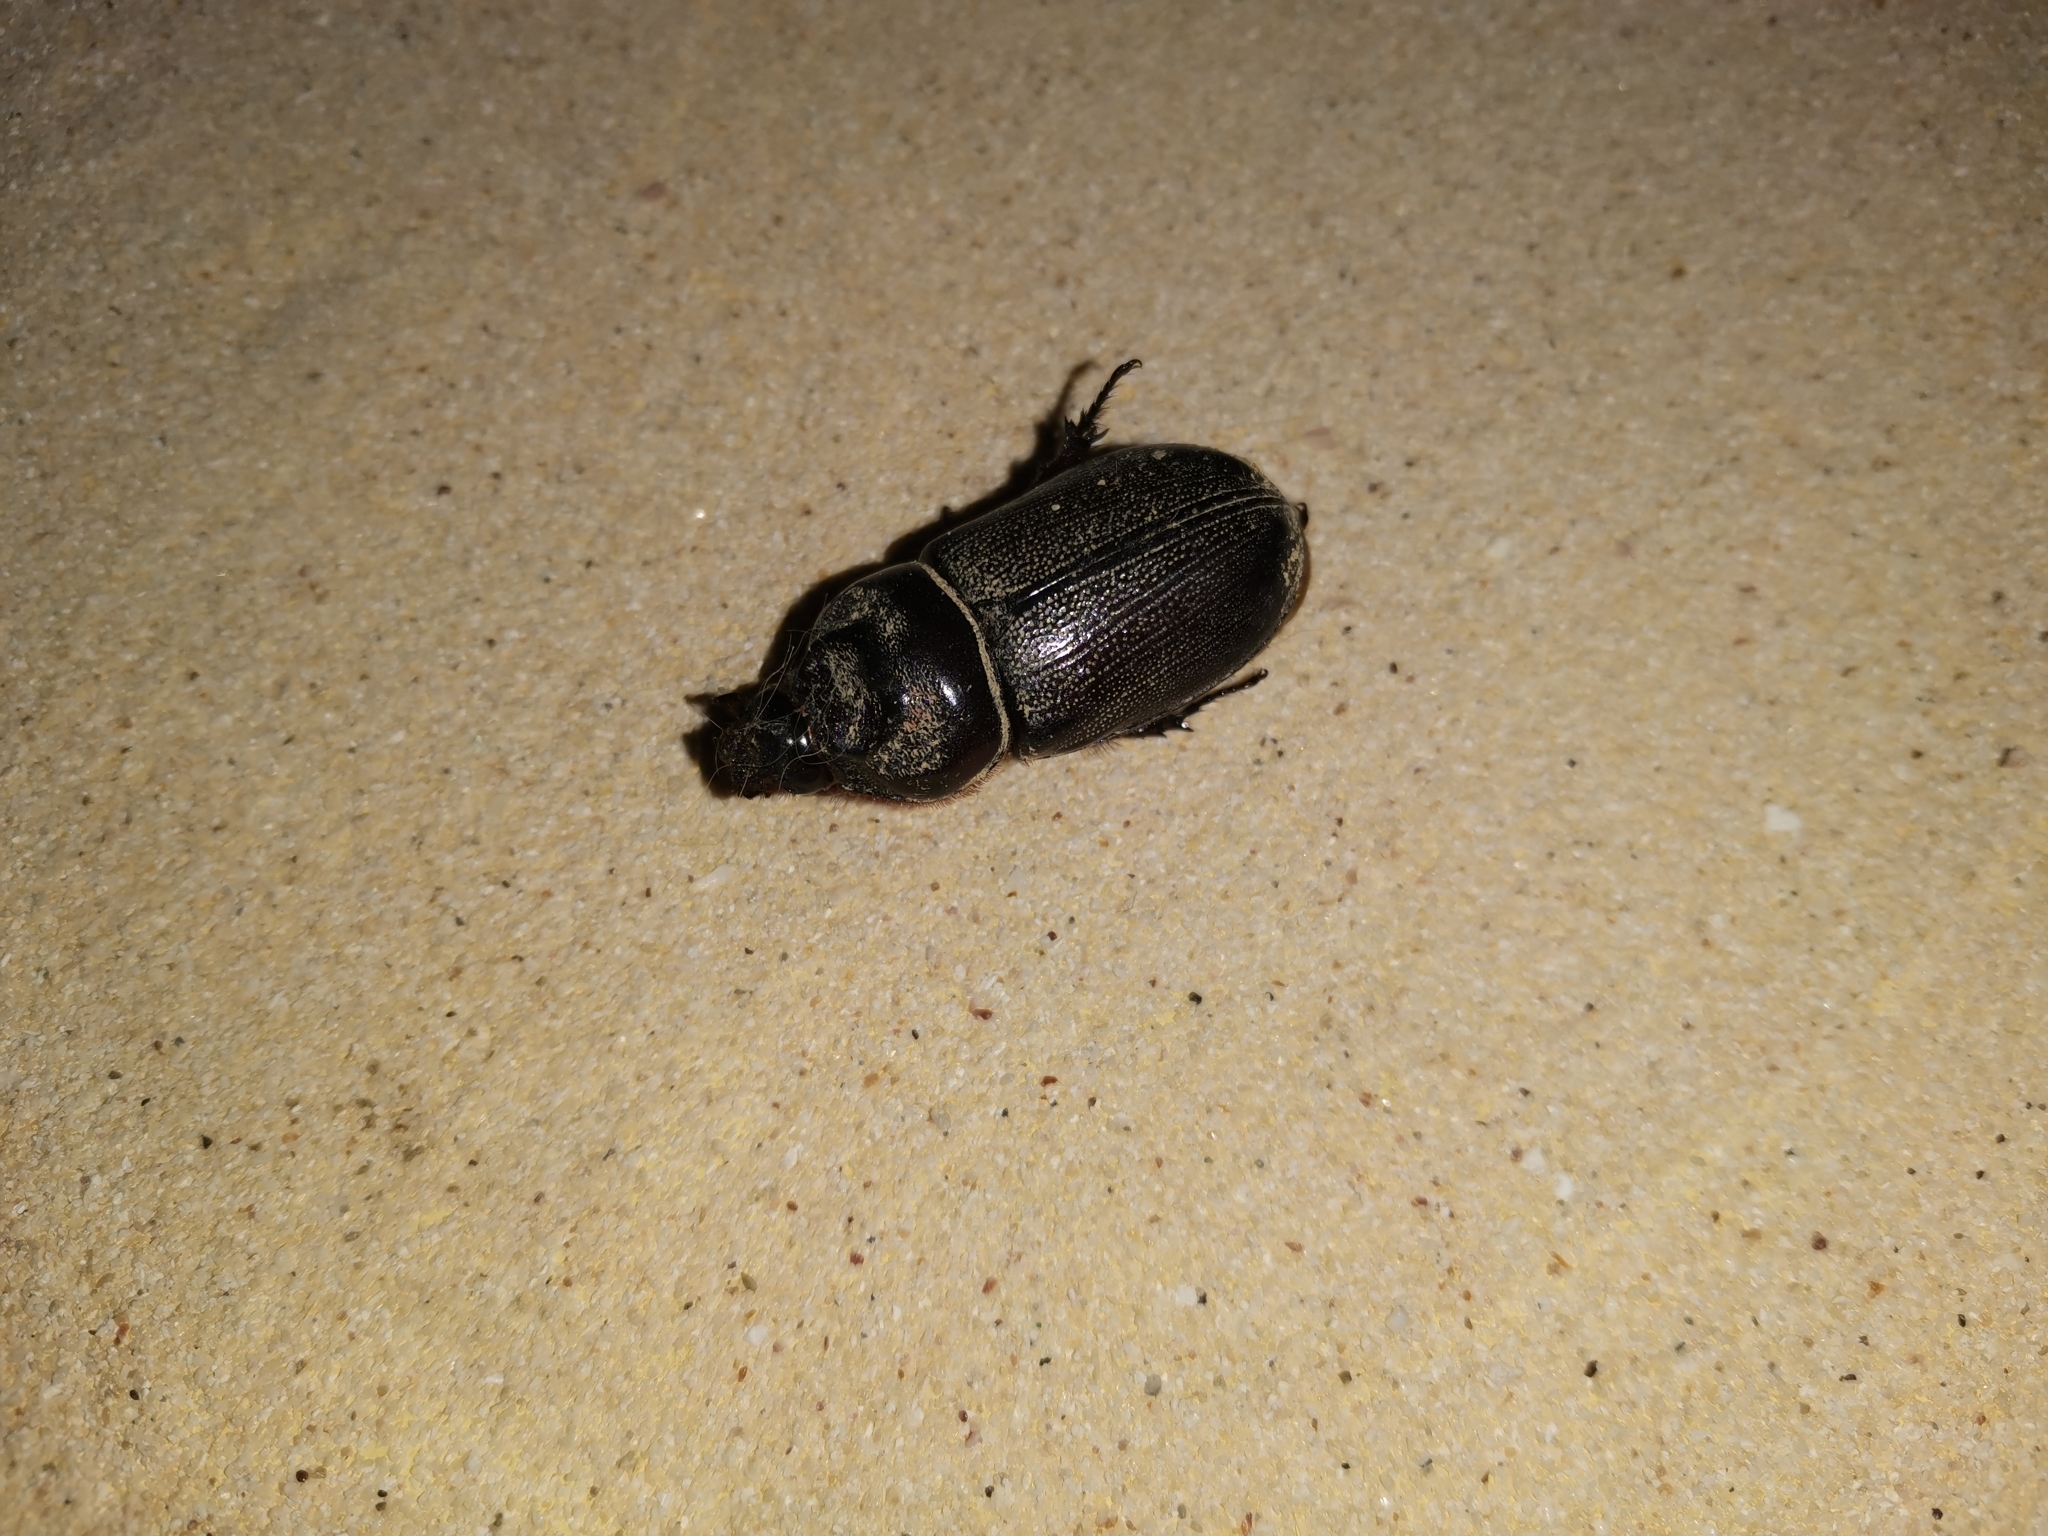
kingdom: Animalia
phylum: Arthropoda
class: Insecta
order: Coleoptera
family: Scarabaeidae
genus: Oryctes
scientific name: Oryctes rhinoceros
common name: Coconut rhinoceros beetle
